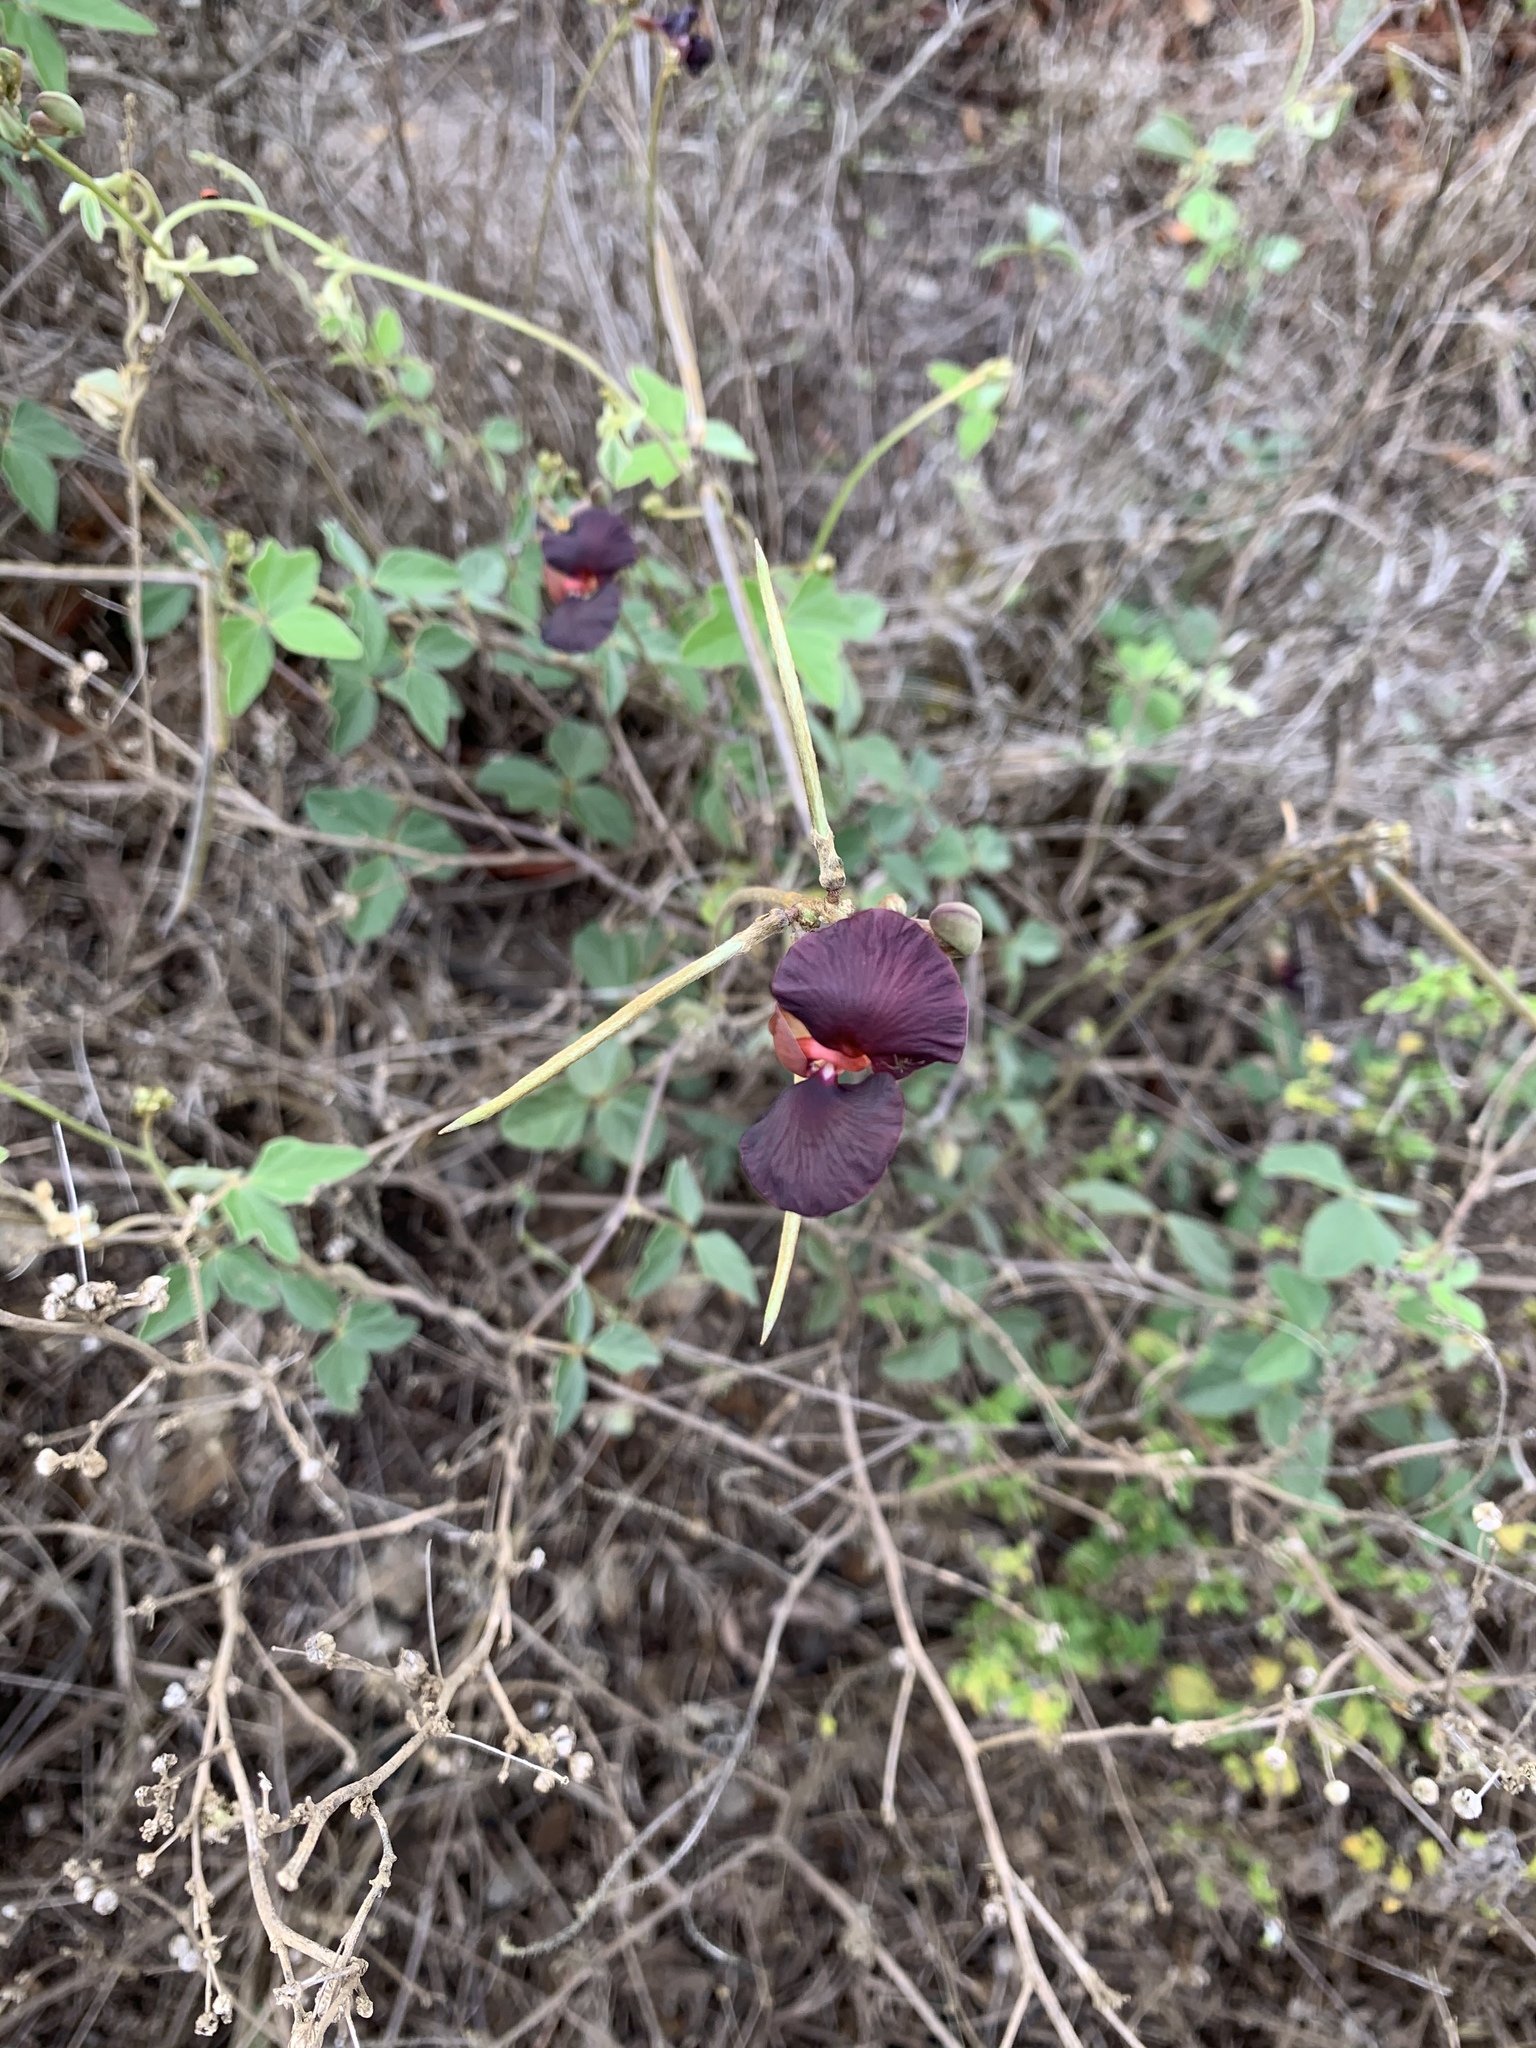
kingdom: Plantae
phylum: Tracheophyta
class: Magnoliopsida
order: Fabales
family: Fabaceae
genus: Macroptilium
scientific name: Macroptilium atropurpureum
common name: Purple bushbean
